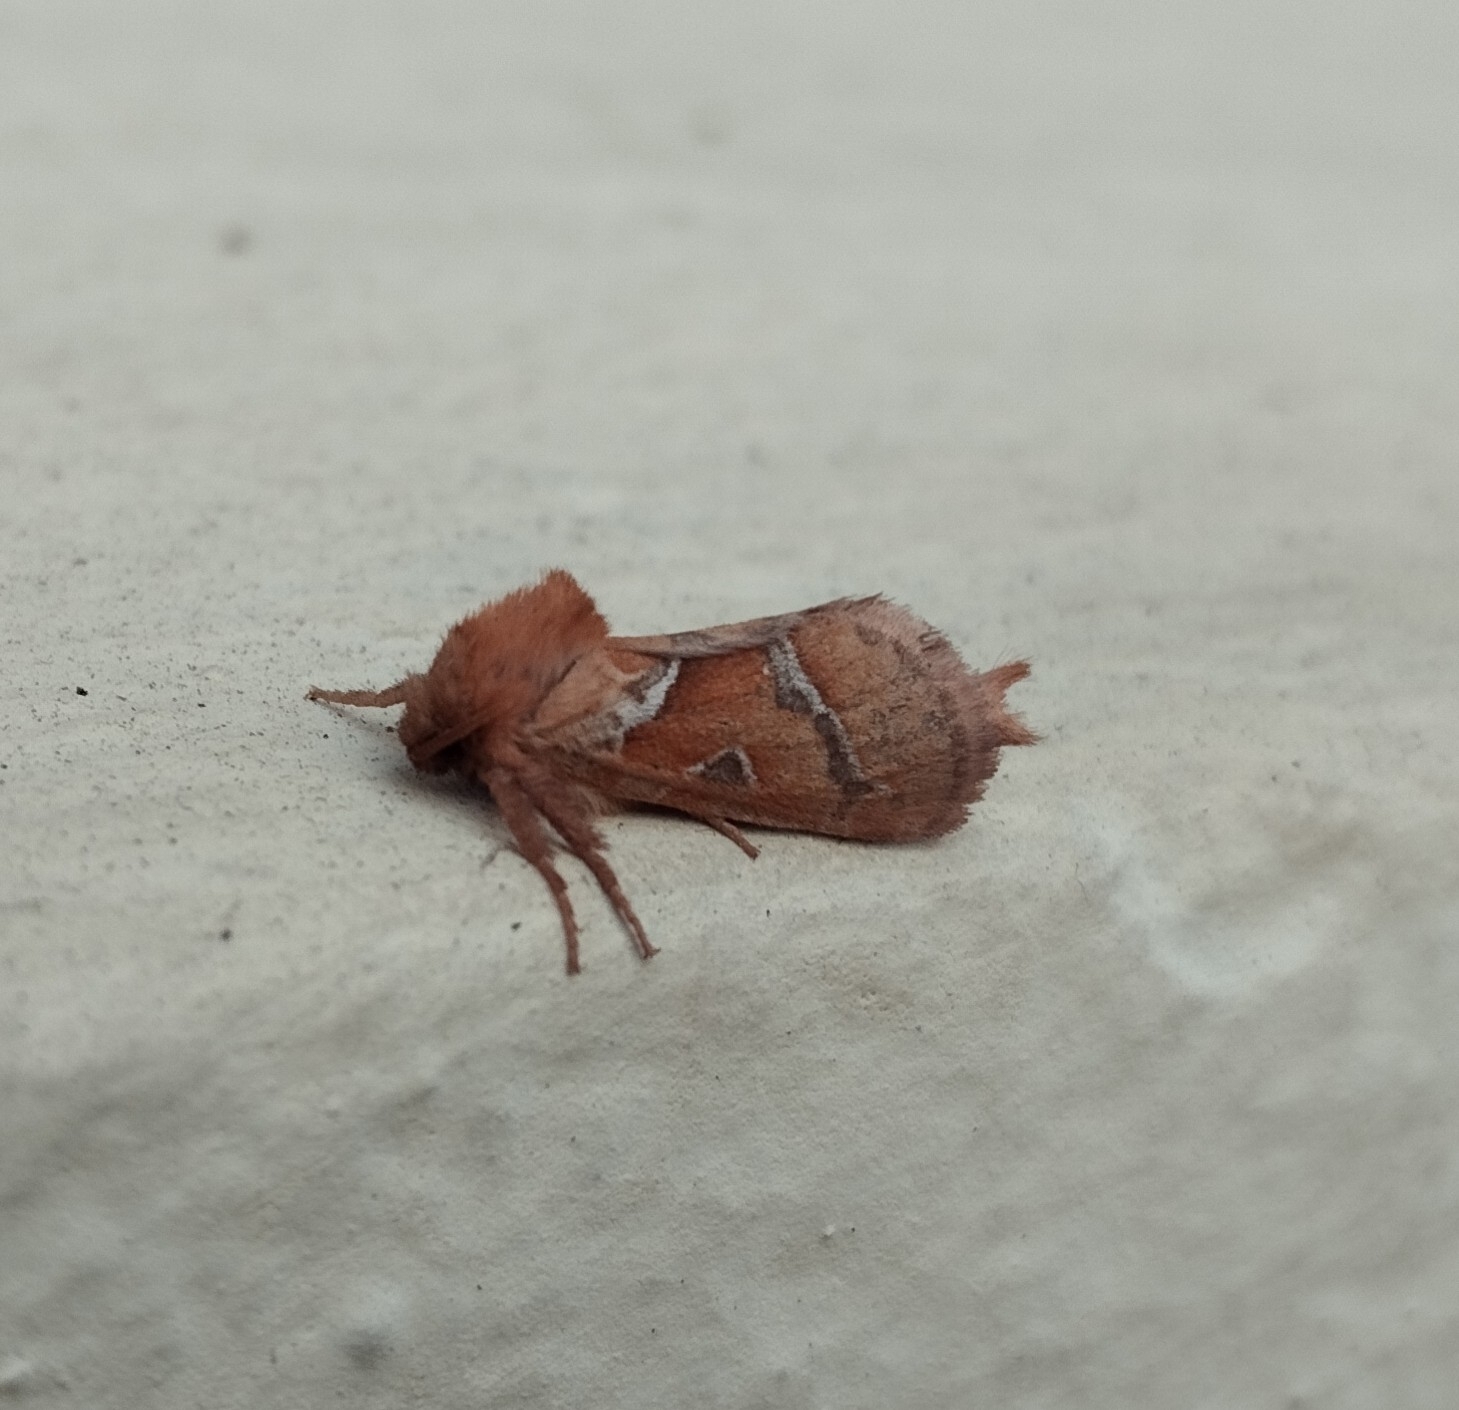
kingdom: Animalia
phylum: Arthropoda
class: Insecta
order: Lepidoptera
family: Hepialidae
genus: Triodia
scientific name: Triodia sylvina
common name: Orange swift
